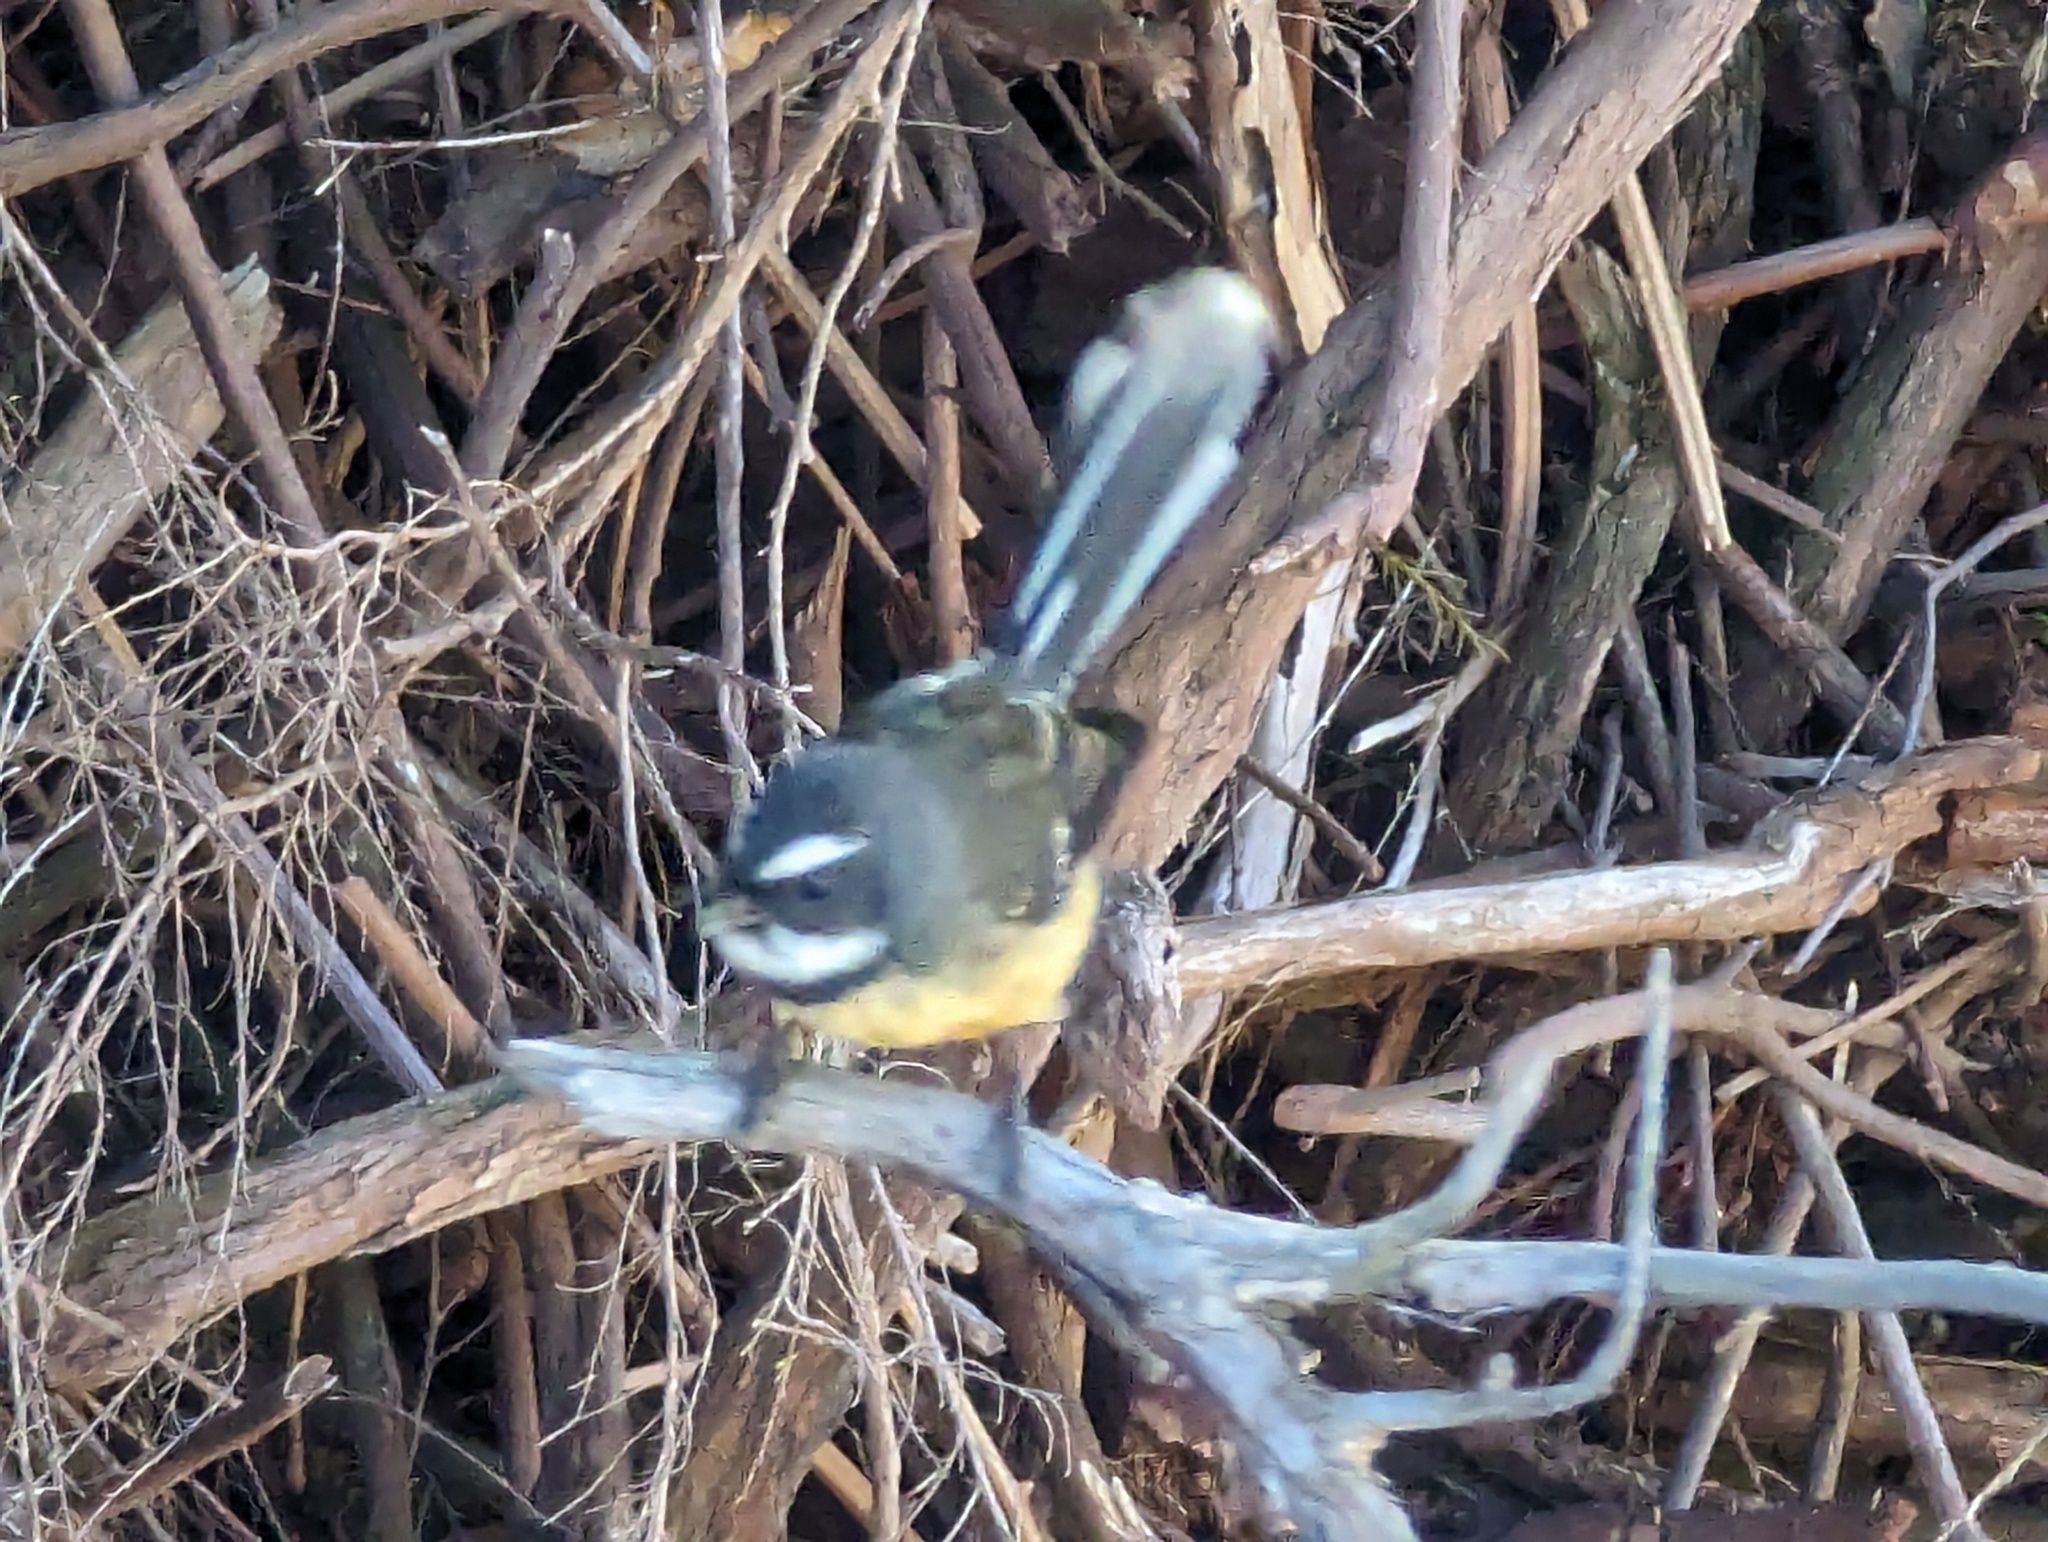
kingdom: Animalia
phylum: Chordata
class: Aves
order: Passeriformes
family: Rhipiduridae
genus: Rhipidura
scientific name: Rhipidura fuliginosa
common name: New zealand fantail
